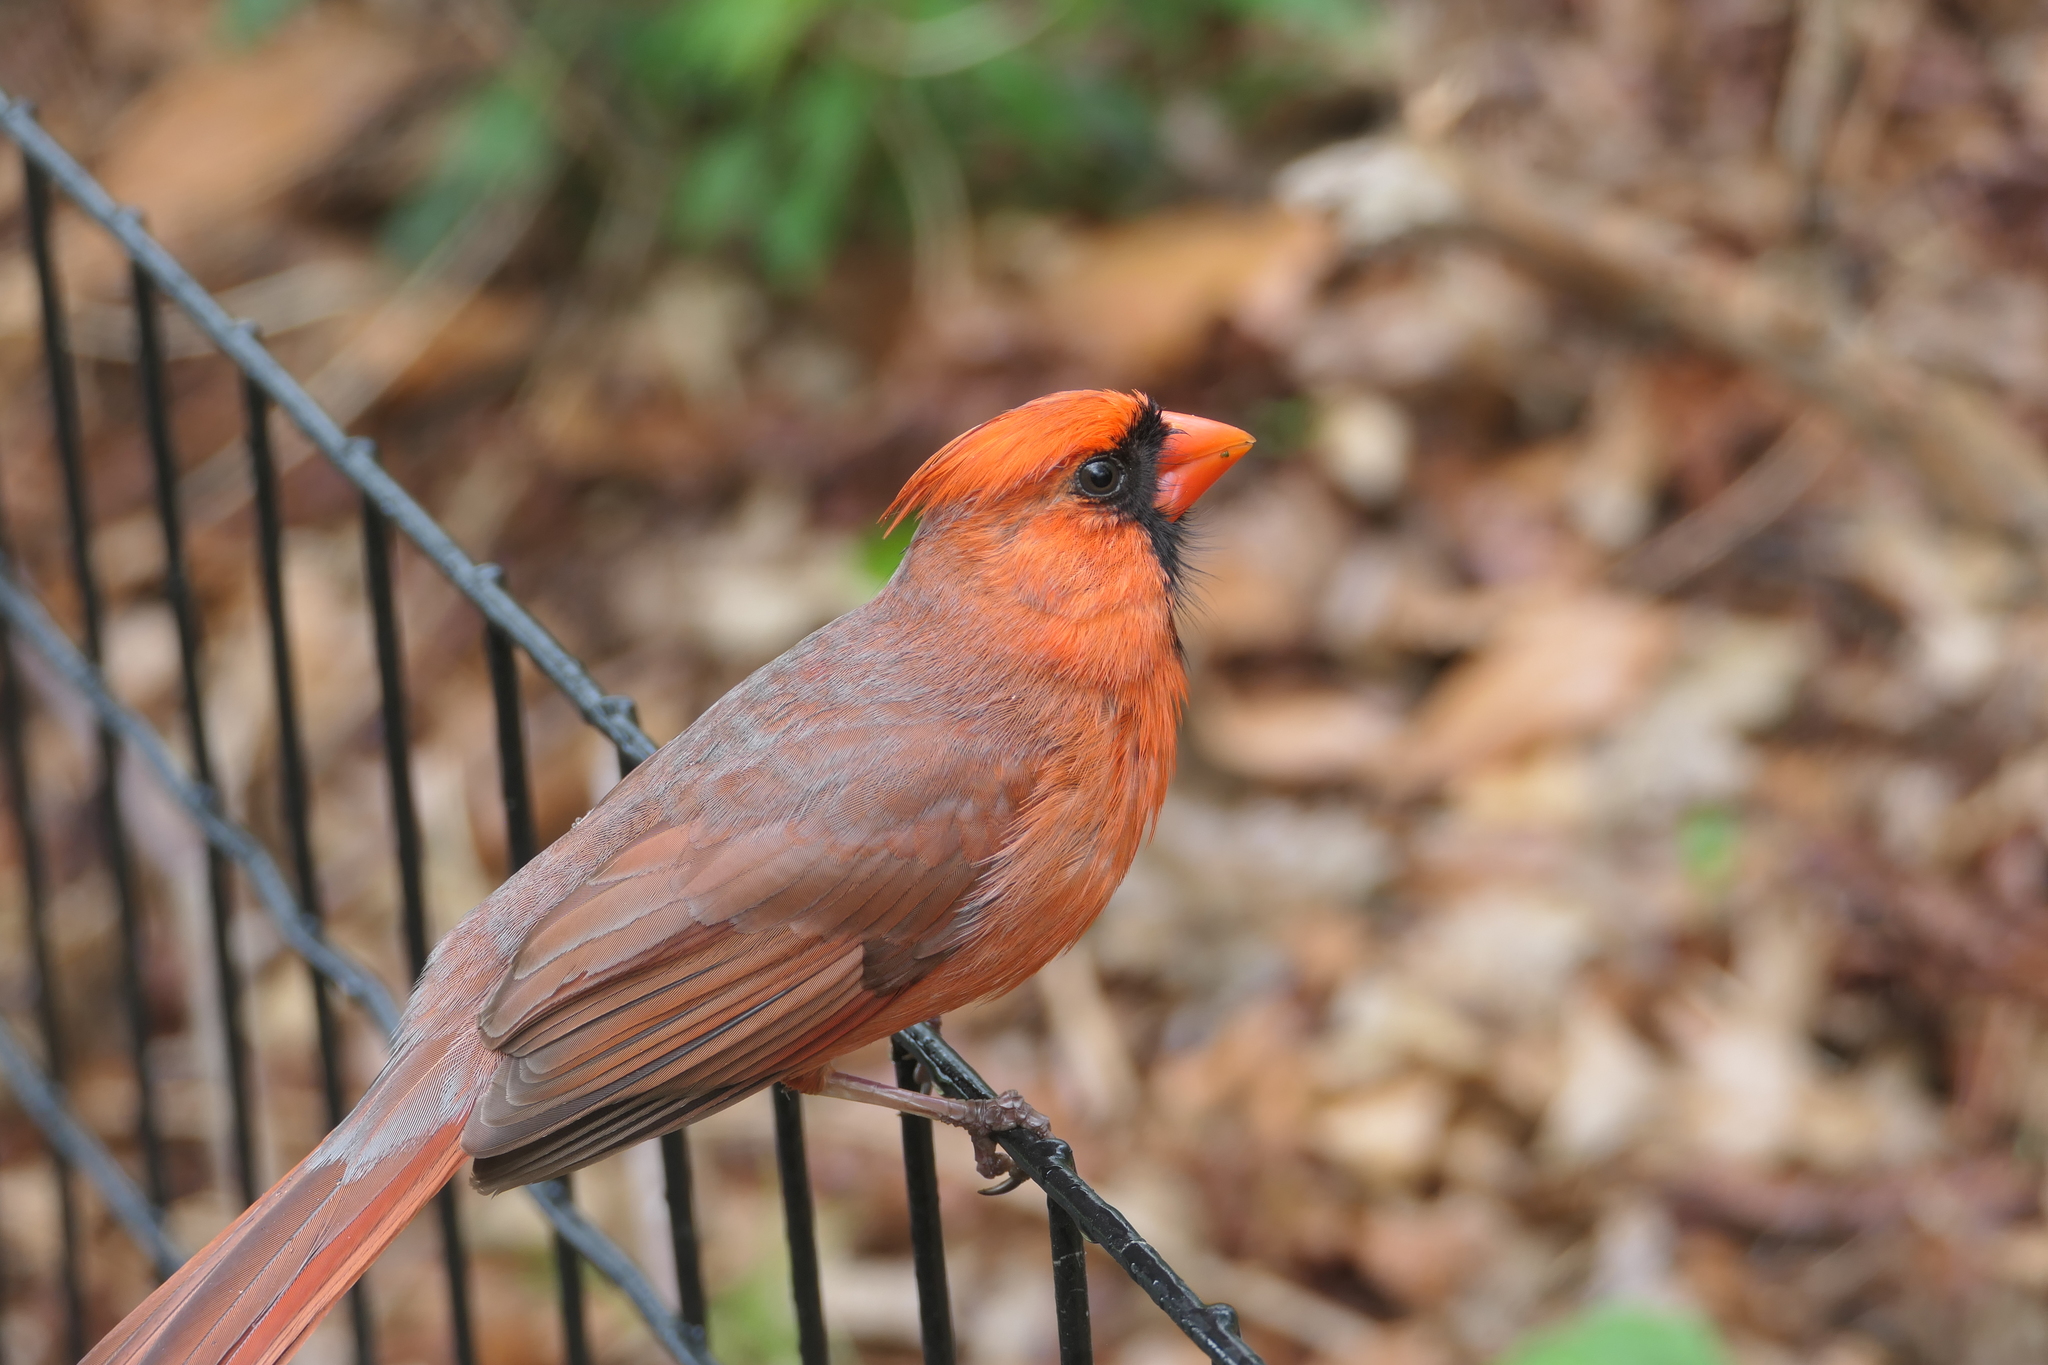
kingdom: Animalia
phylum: Chordata
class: Aves
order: Passeriformes
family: Cardinalidae
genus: Cardinalis
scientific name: Cardinalis cardinalis
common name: Northern cardinal
